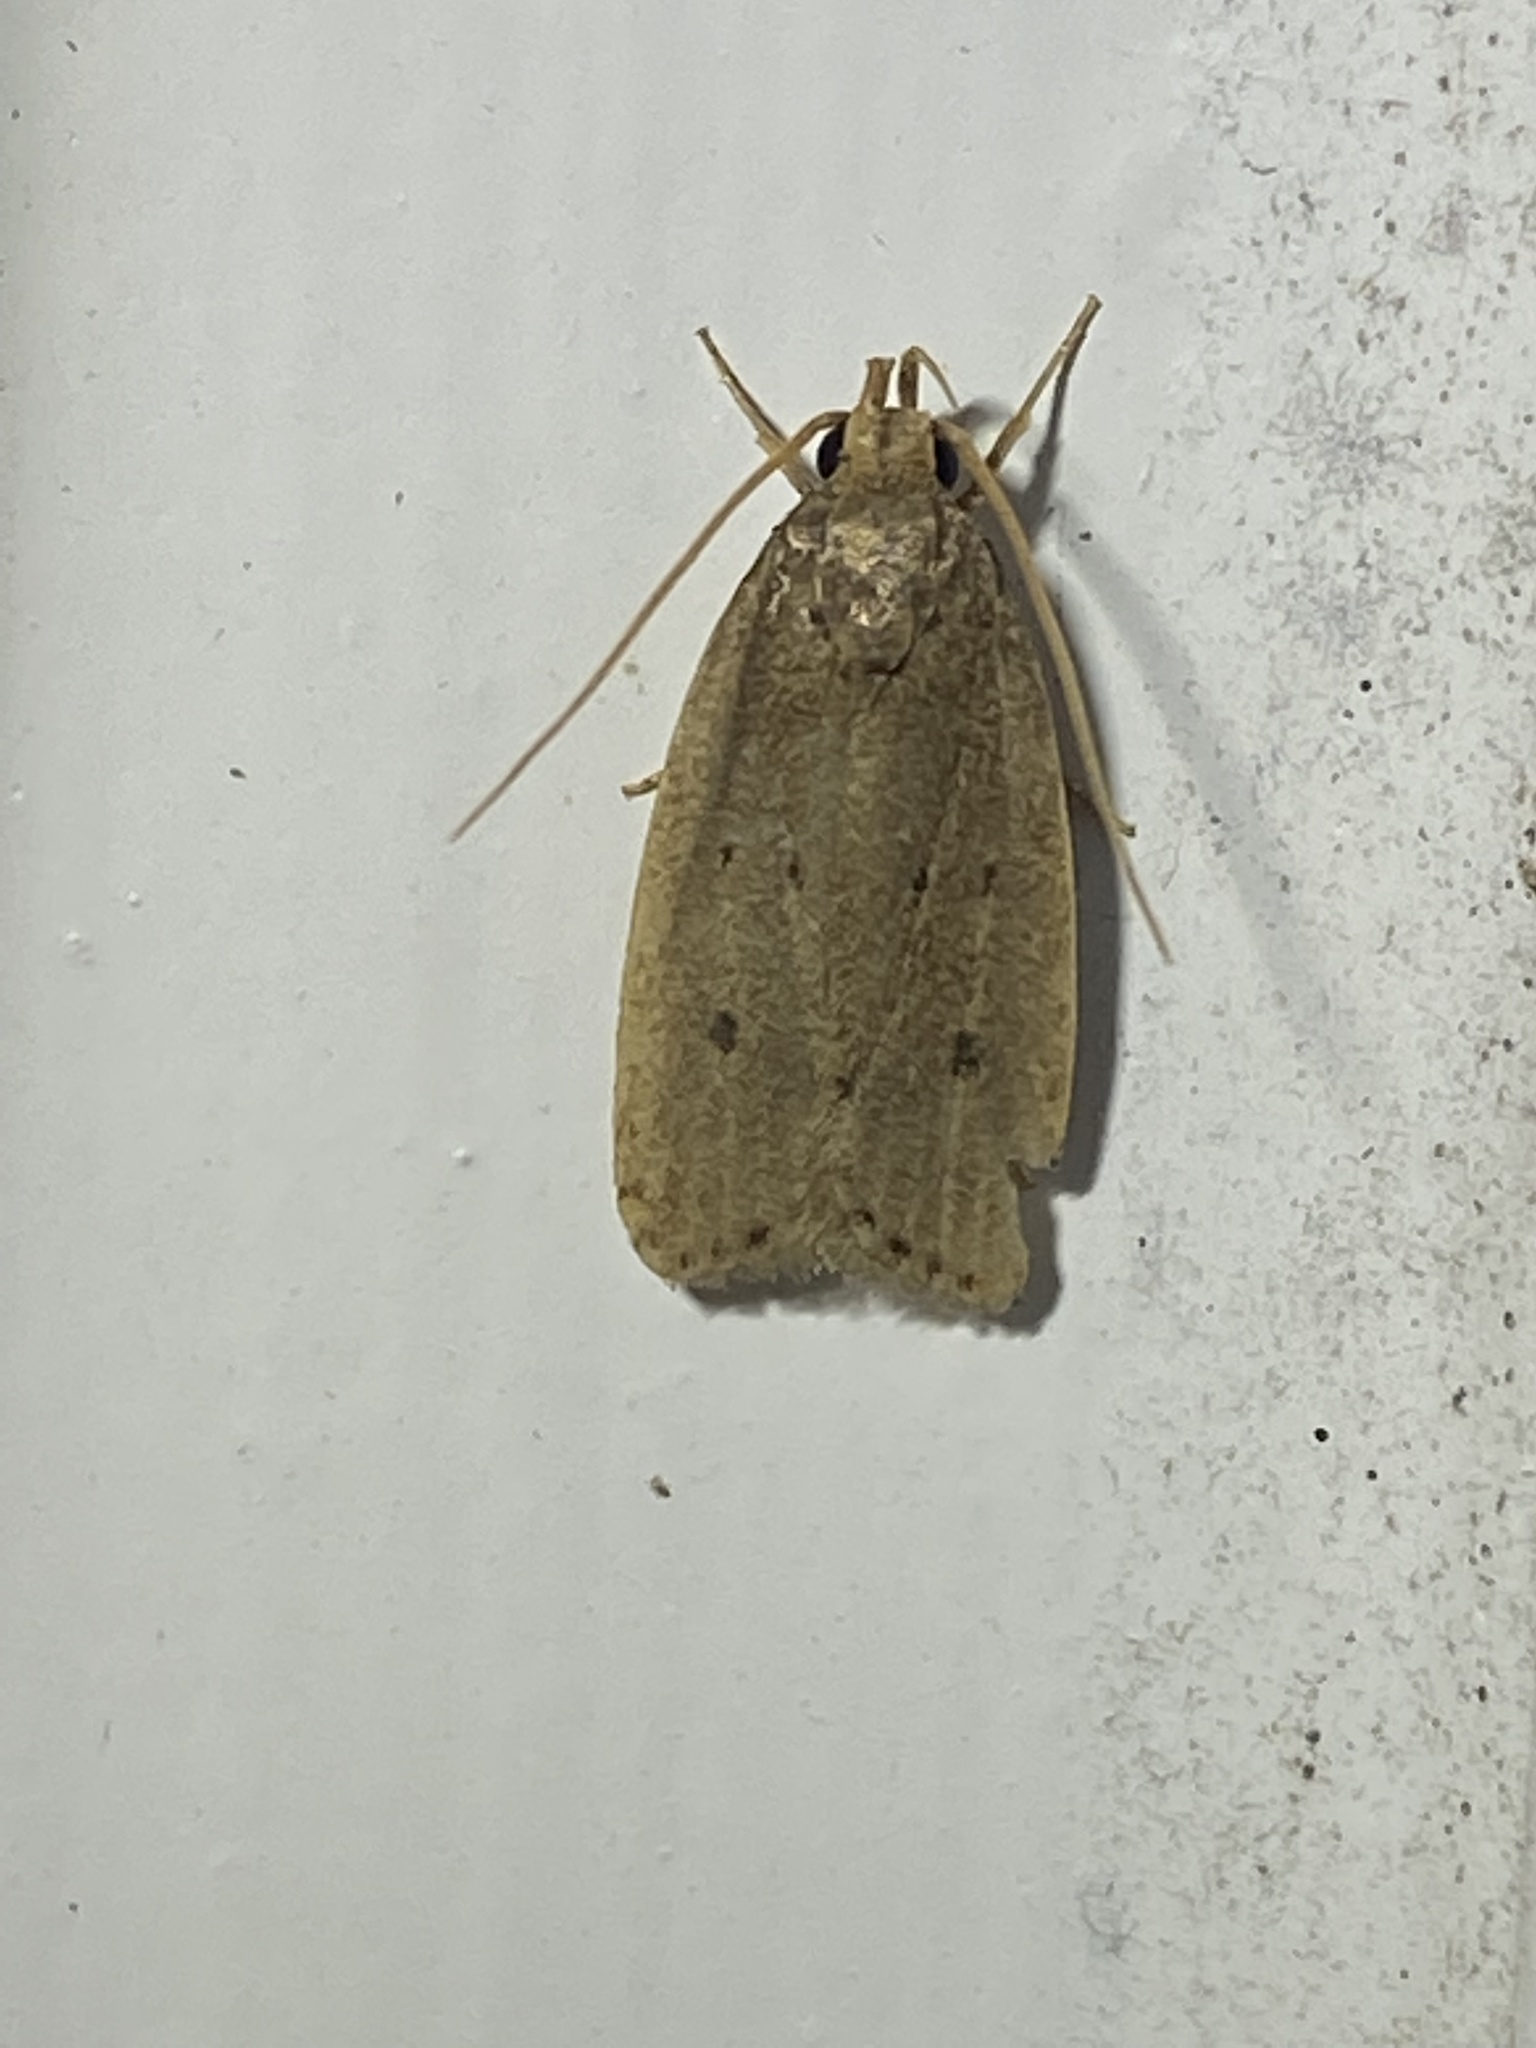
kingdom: Animalia
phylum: Arthropoda
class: Insecta
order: Lepidoptera
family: Autostichidae
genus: Autosticha
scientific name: Autosticha kyotensis
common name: Kyoto moth
